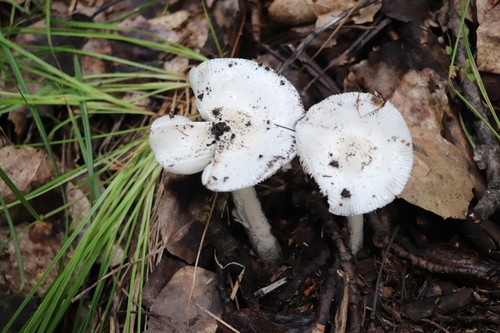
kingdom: Fungi
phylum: Basidiomycota
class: Agaricomycetes
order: Agaricales
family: Amanitaceae
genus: Amanita
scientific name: Amanita
